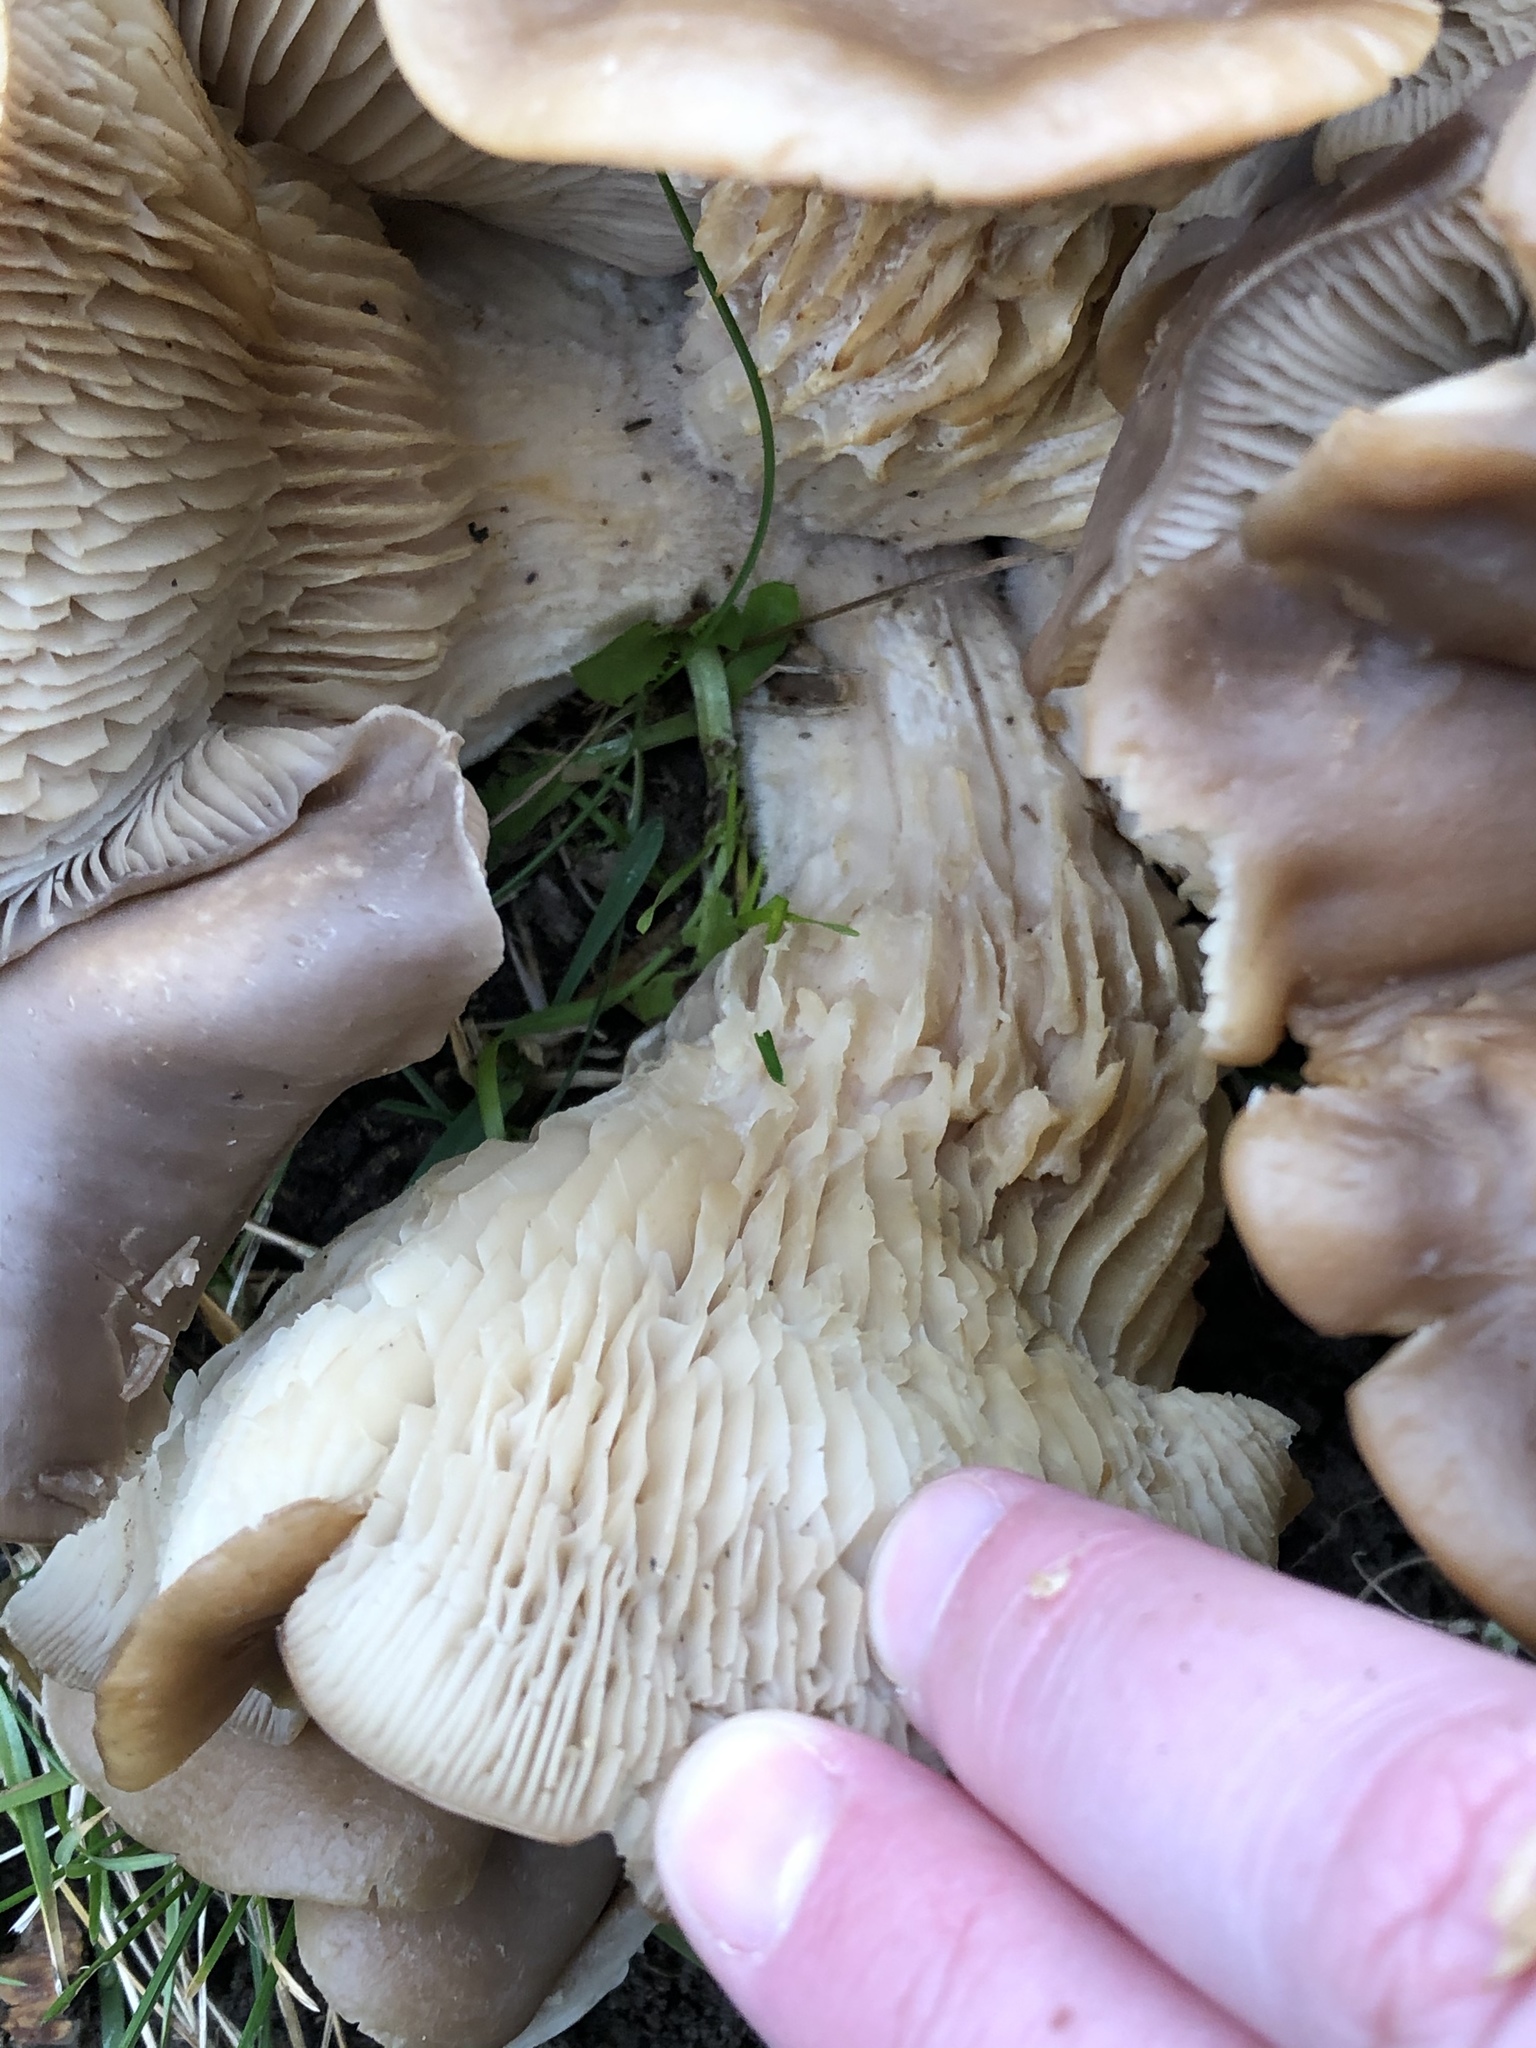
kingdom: Fungi
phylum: Basidiomycota
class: Agaricomycetes
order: Agaricales
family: Pleurotaceae
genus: Hohenbuehelia
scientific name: Hohenbuehelia petaloides
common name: Shoehorn oyster
